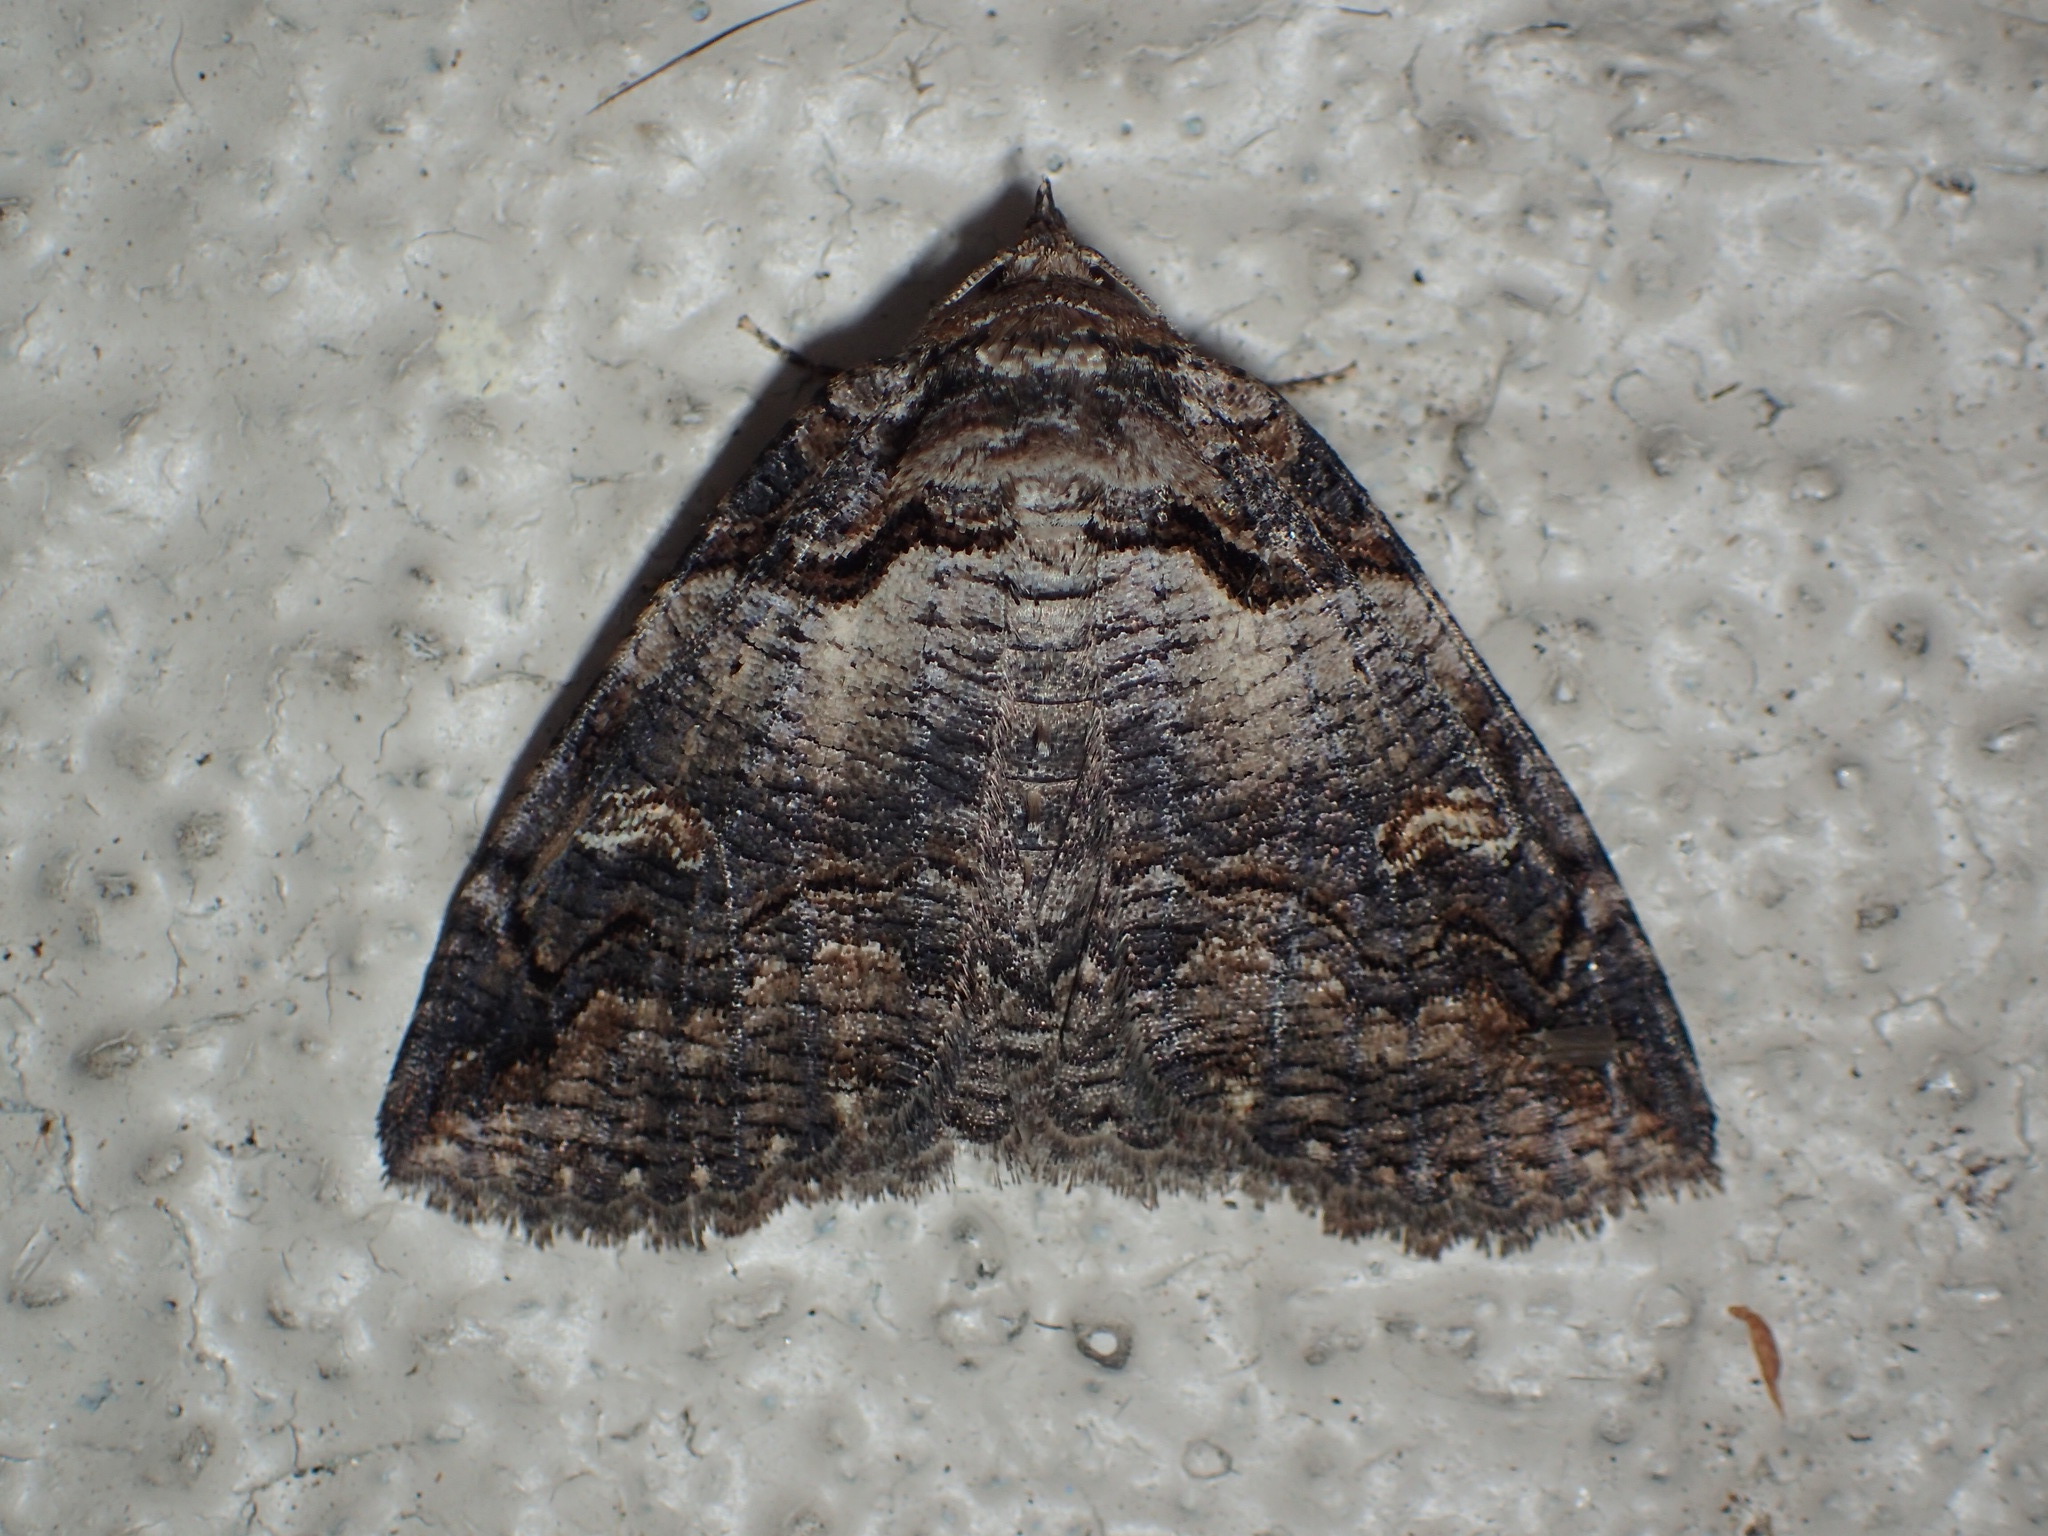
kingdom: Animalia
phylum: Arthropoda
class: Insecta
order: Lepidoptera
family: Erebidae
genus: Zale
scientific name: Zale intenta
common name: Intent zale moth
